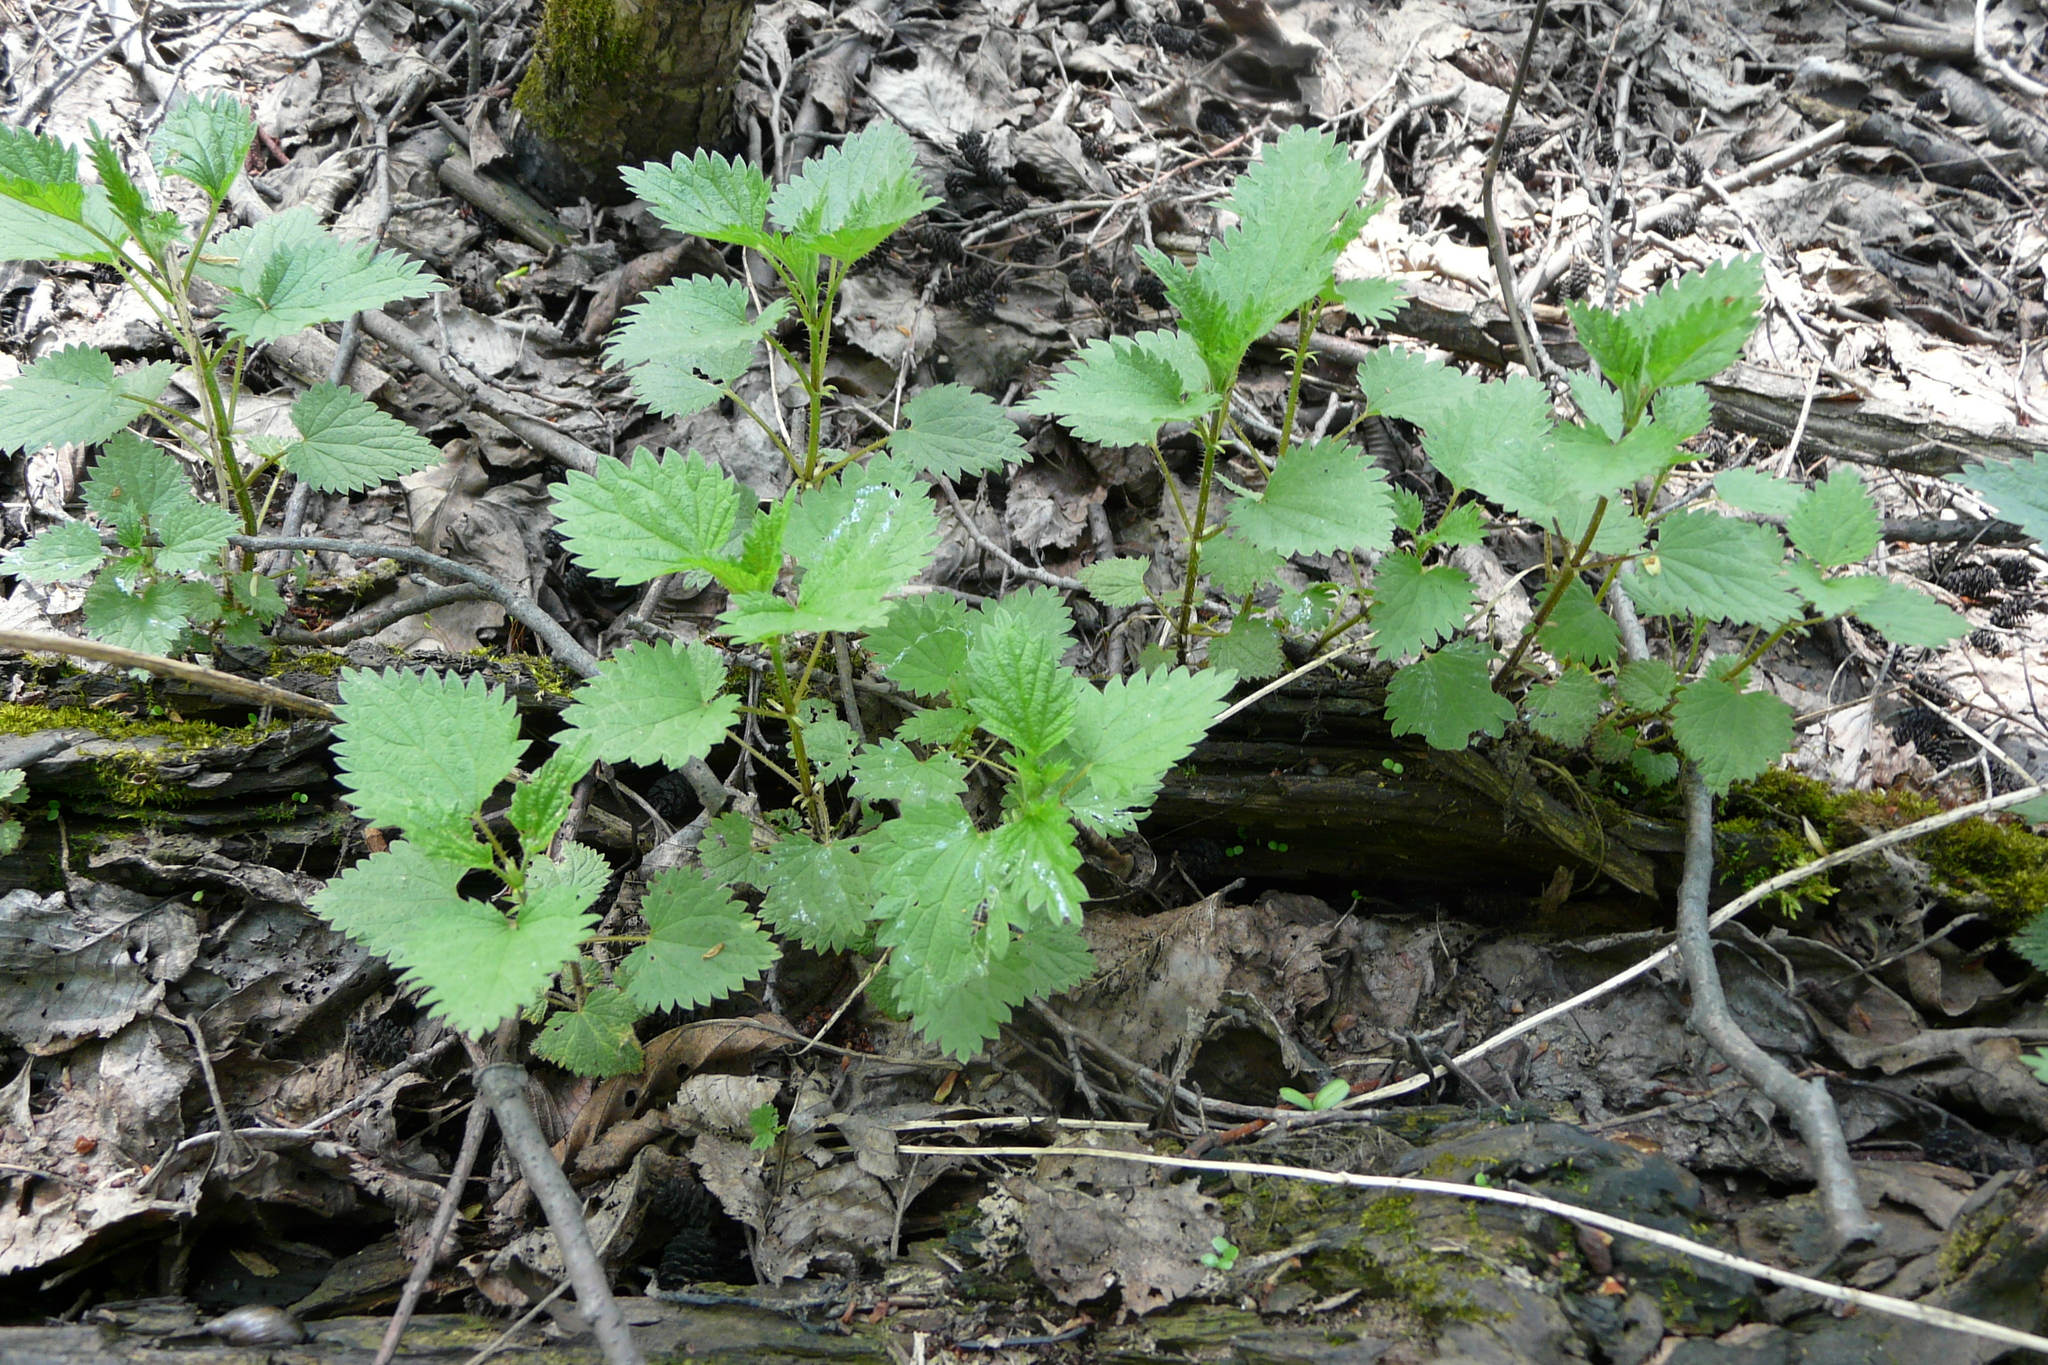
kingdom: Plantae
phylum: Tracheophyta
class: Magnoliopsida
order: Rosales
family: Urticaceae
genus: Urtica
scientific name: Urtica dioica
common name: Common nettle
